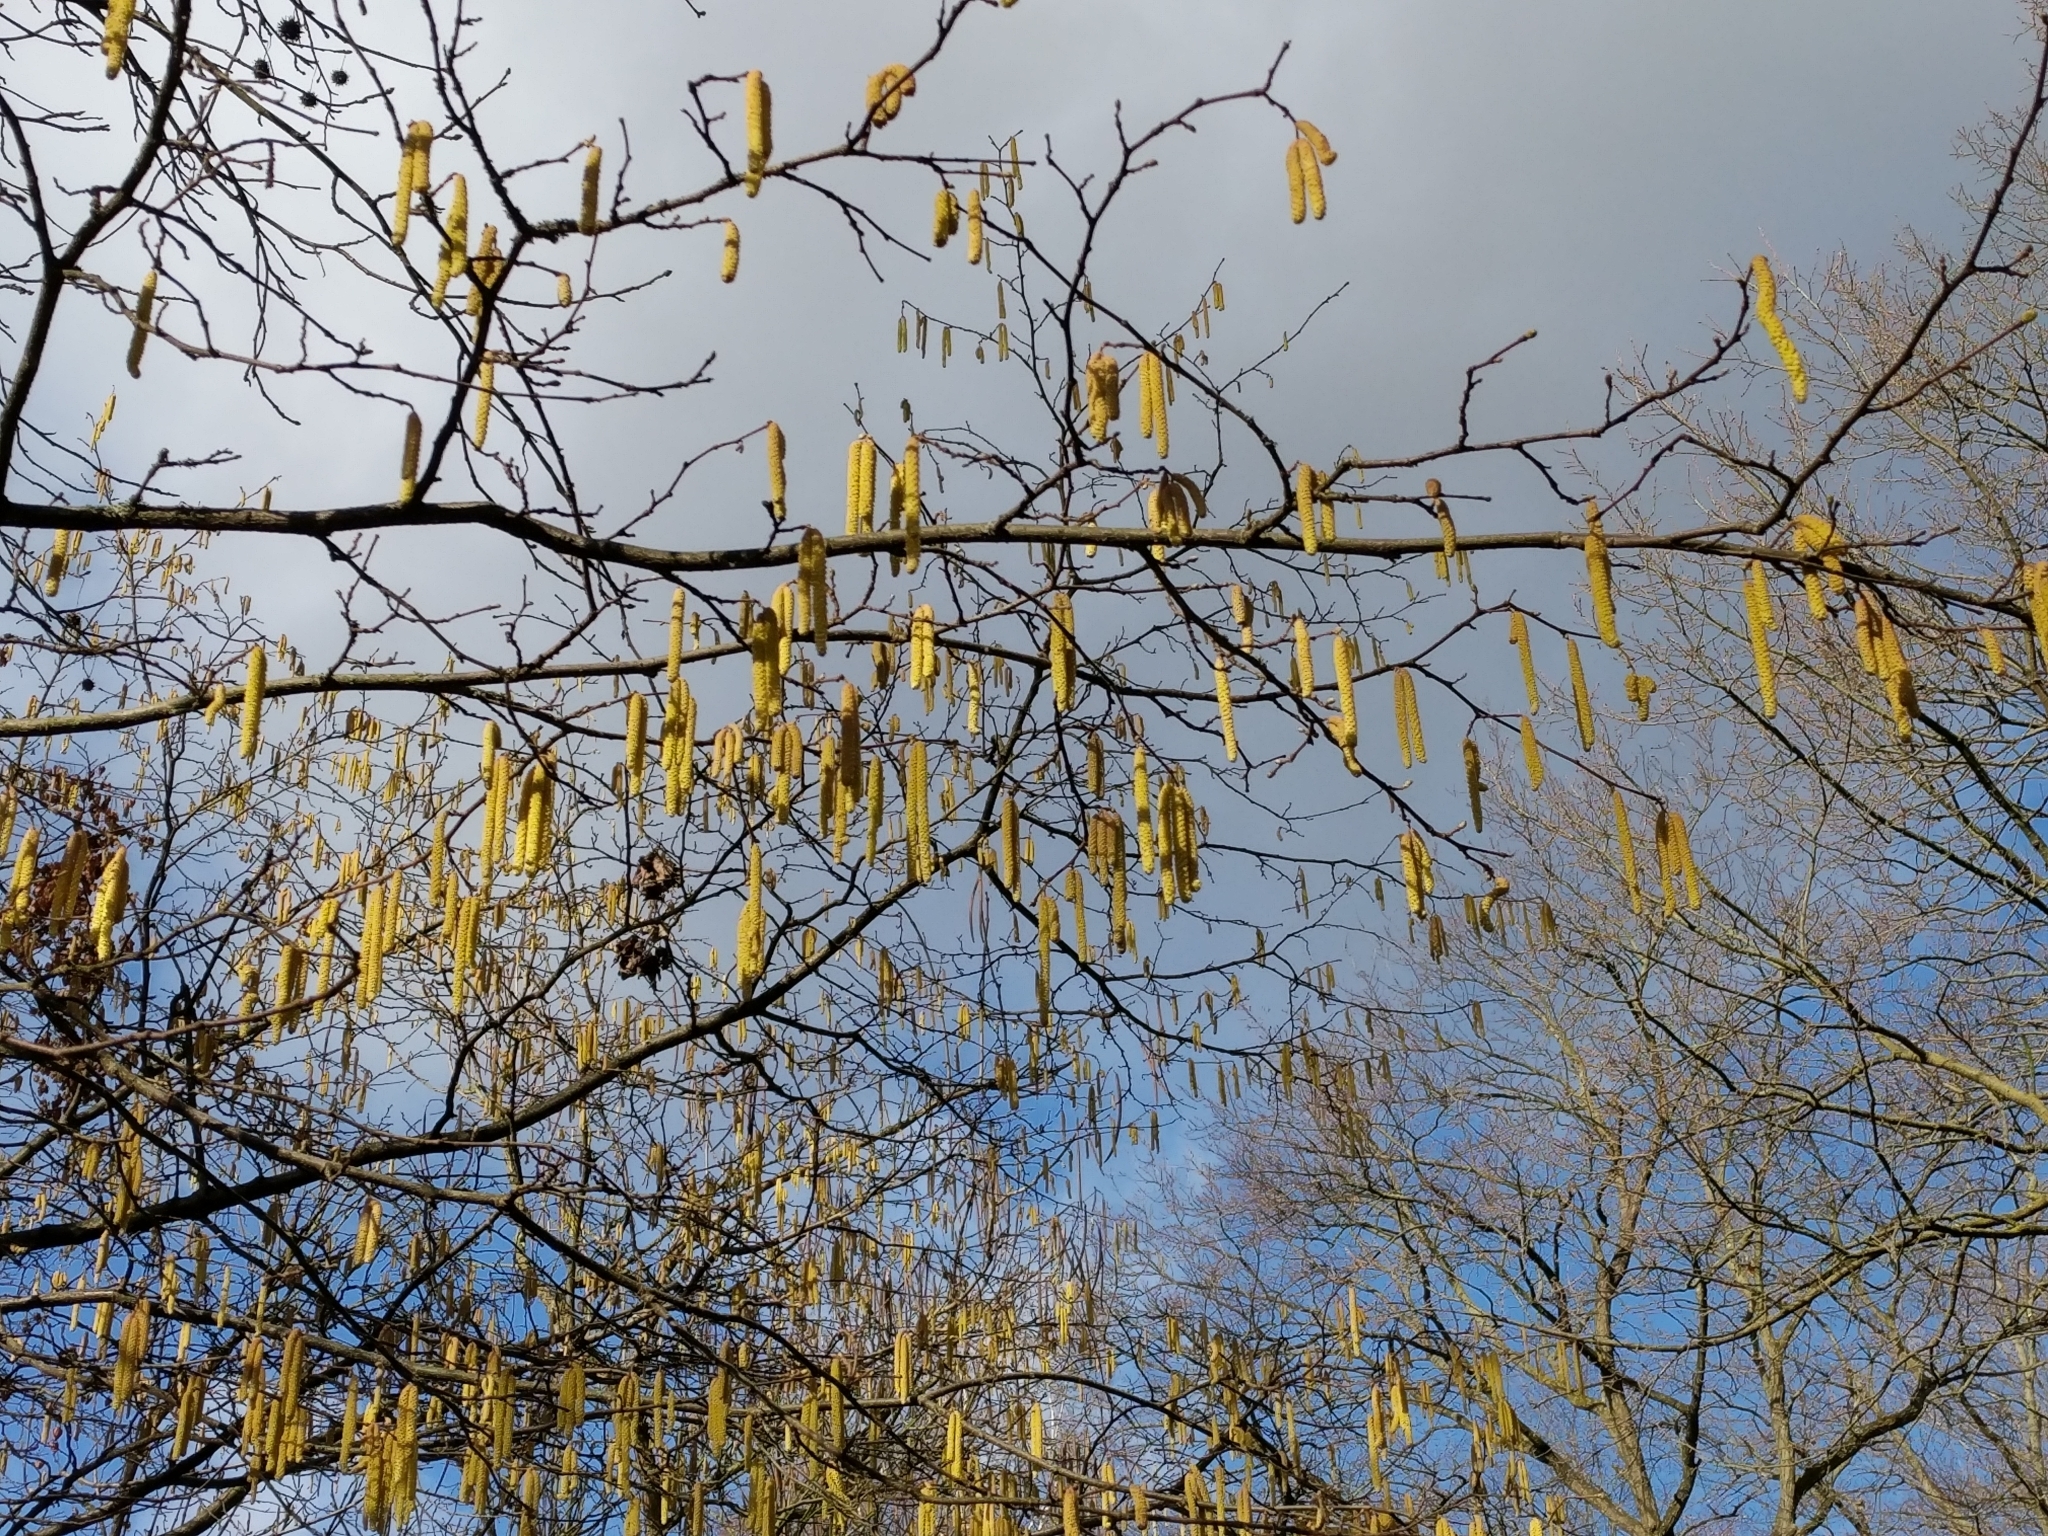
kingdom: Plantae
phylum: Tracheophyta
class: Magnoliopsida
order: Fagales
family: Betulaceae
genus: Corylus
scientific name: Corylus avellana
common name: European hazel
